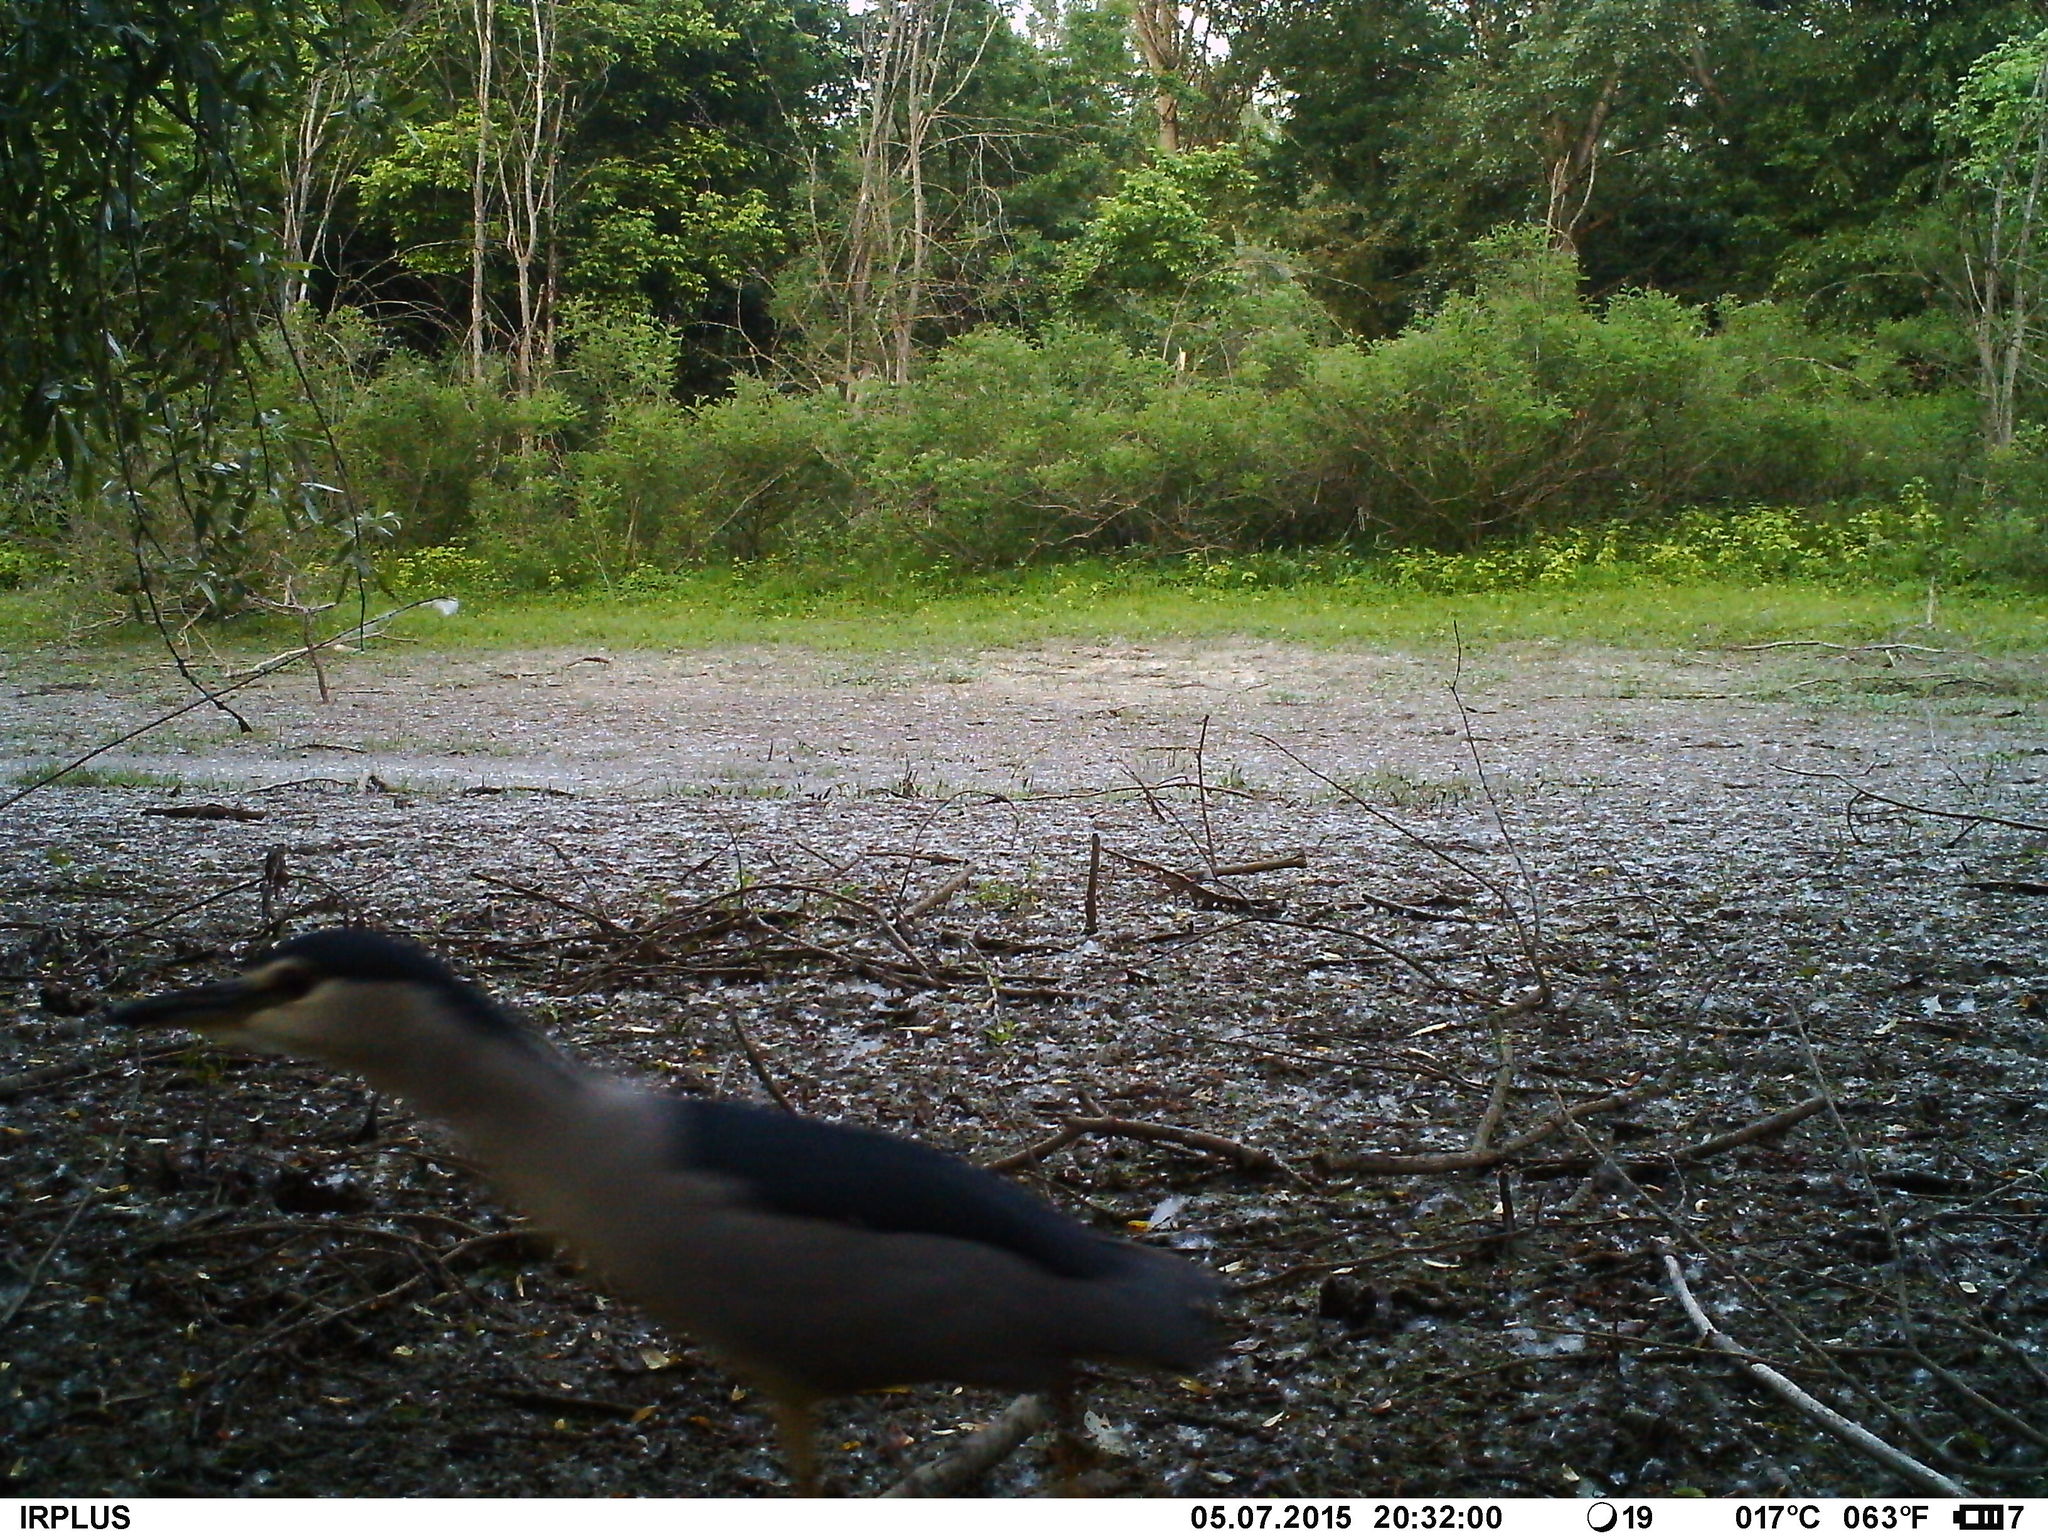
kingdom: Animalia
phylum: Chordata
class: Aves
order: Pelecaniformes
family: Ardeidae
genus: Nycticorax
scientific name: Nycticorax nycticorax
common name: Black-crowned night heron
